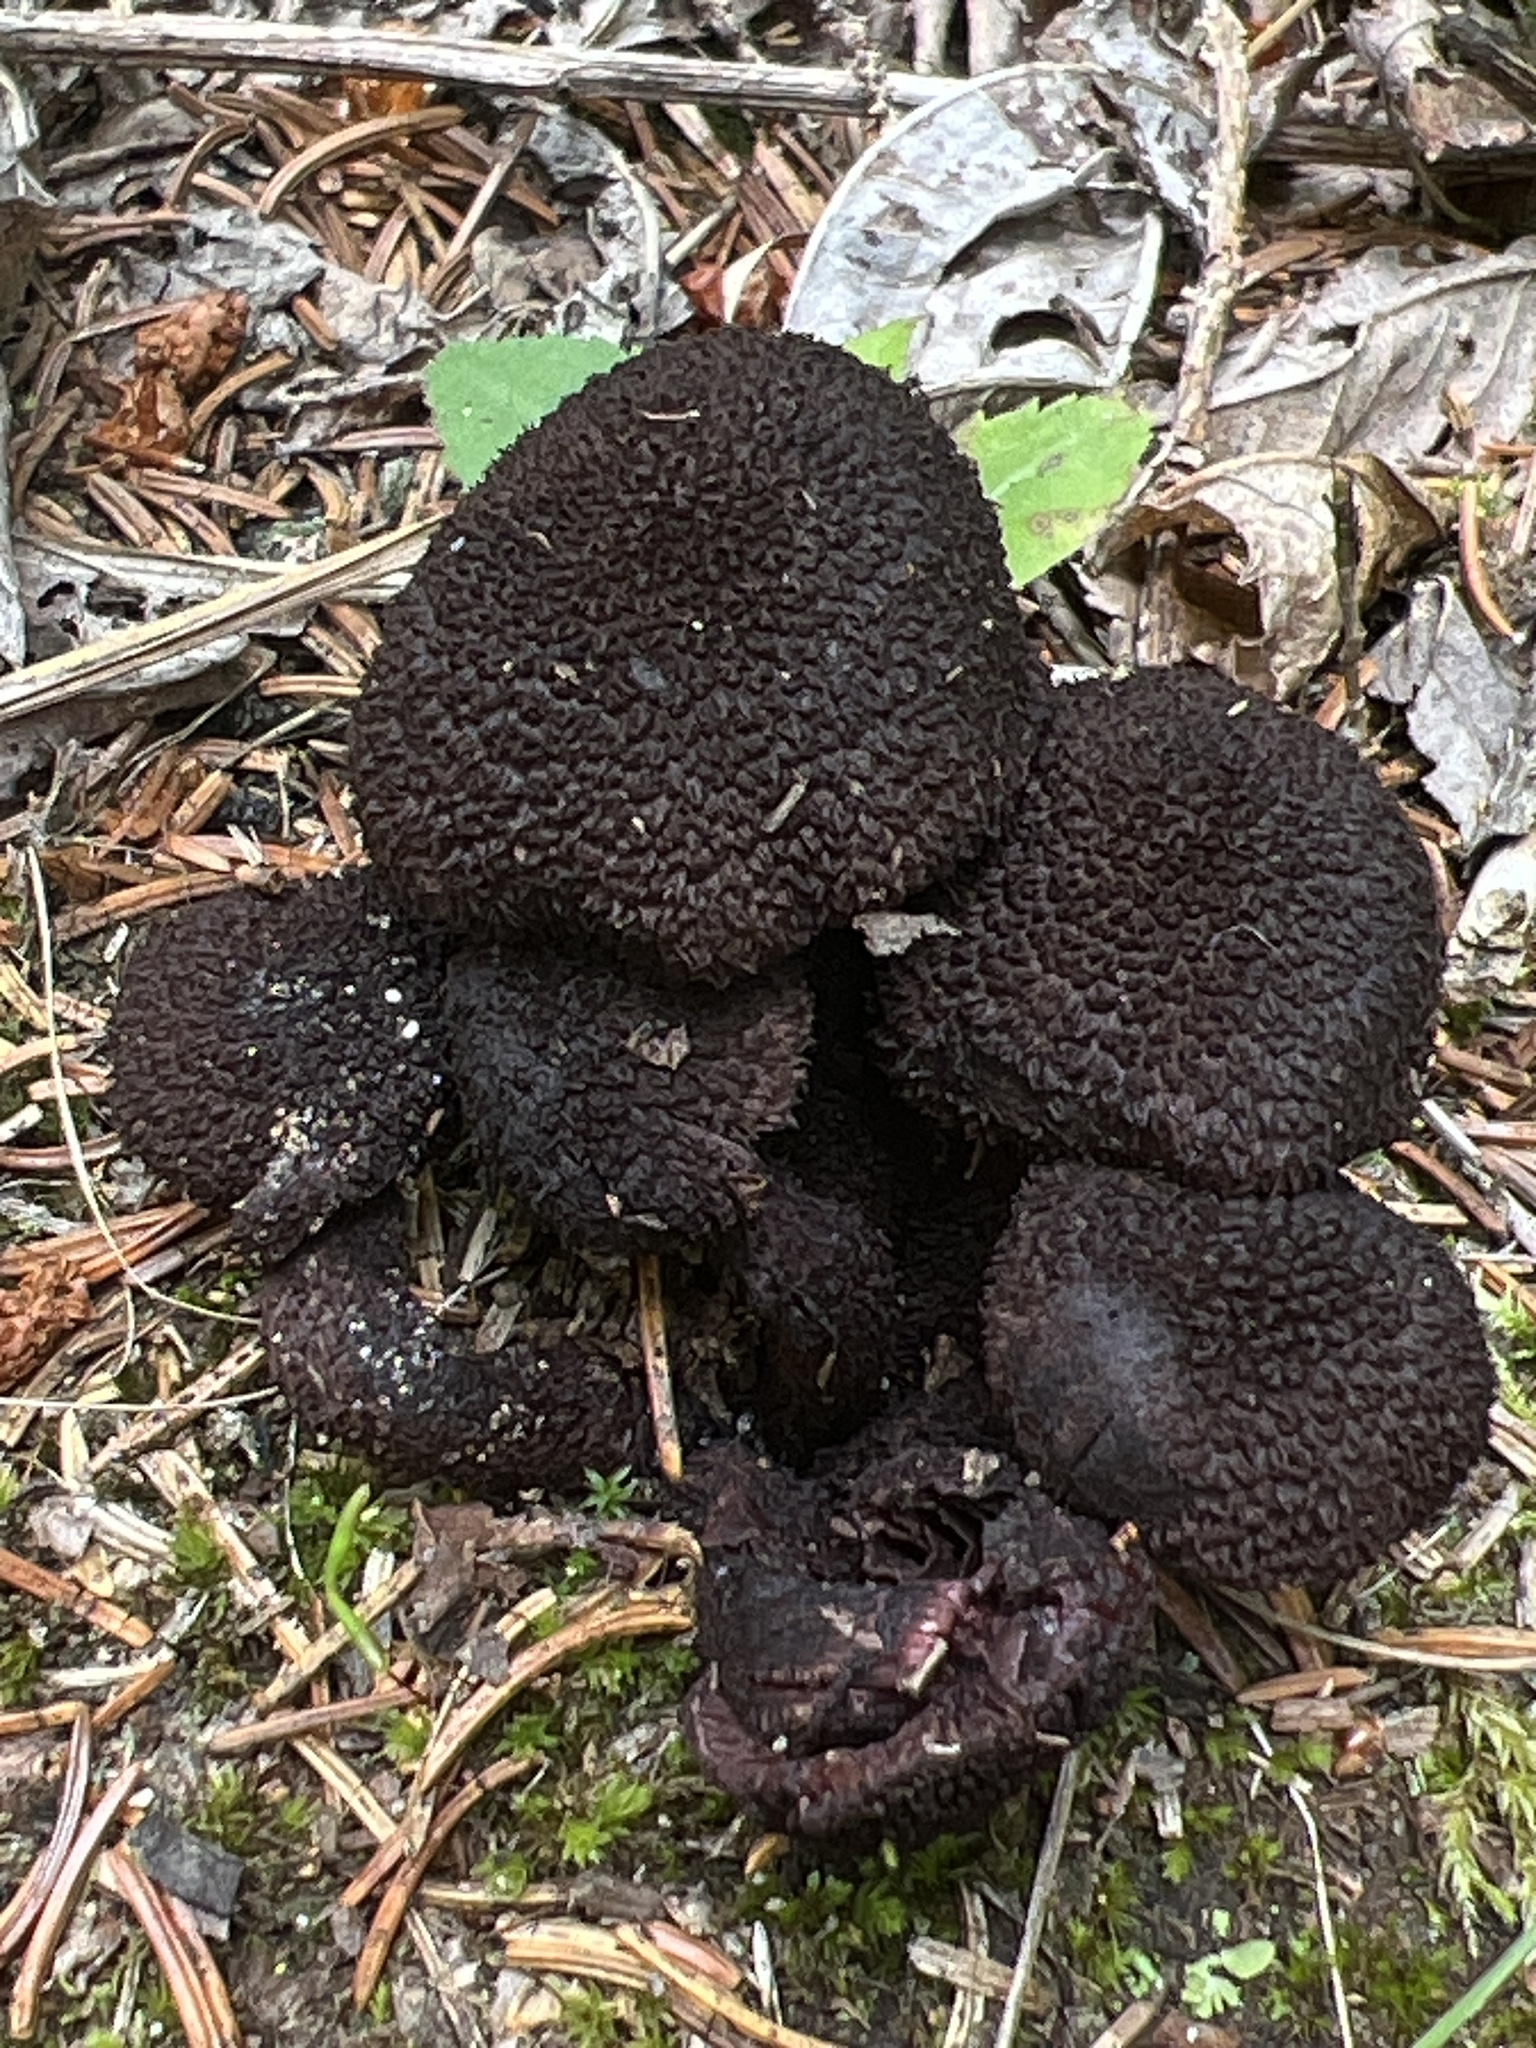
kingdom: Fungi
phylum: Basidiomycota
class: Agaricomycetes
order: Agaricales
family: Inocybaceae
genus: Inocybe
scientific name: Inocybe tahquamenonensis
